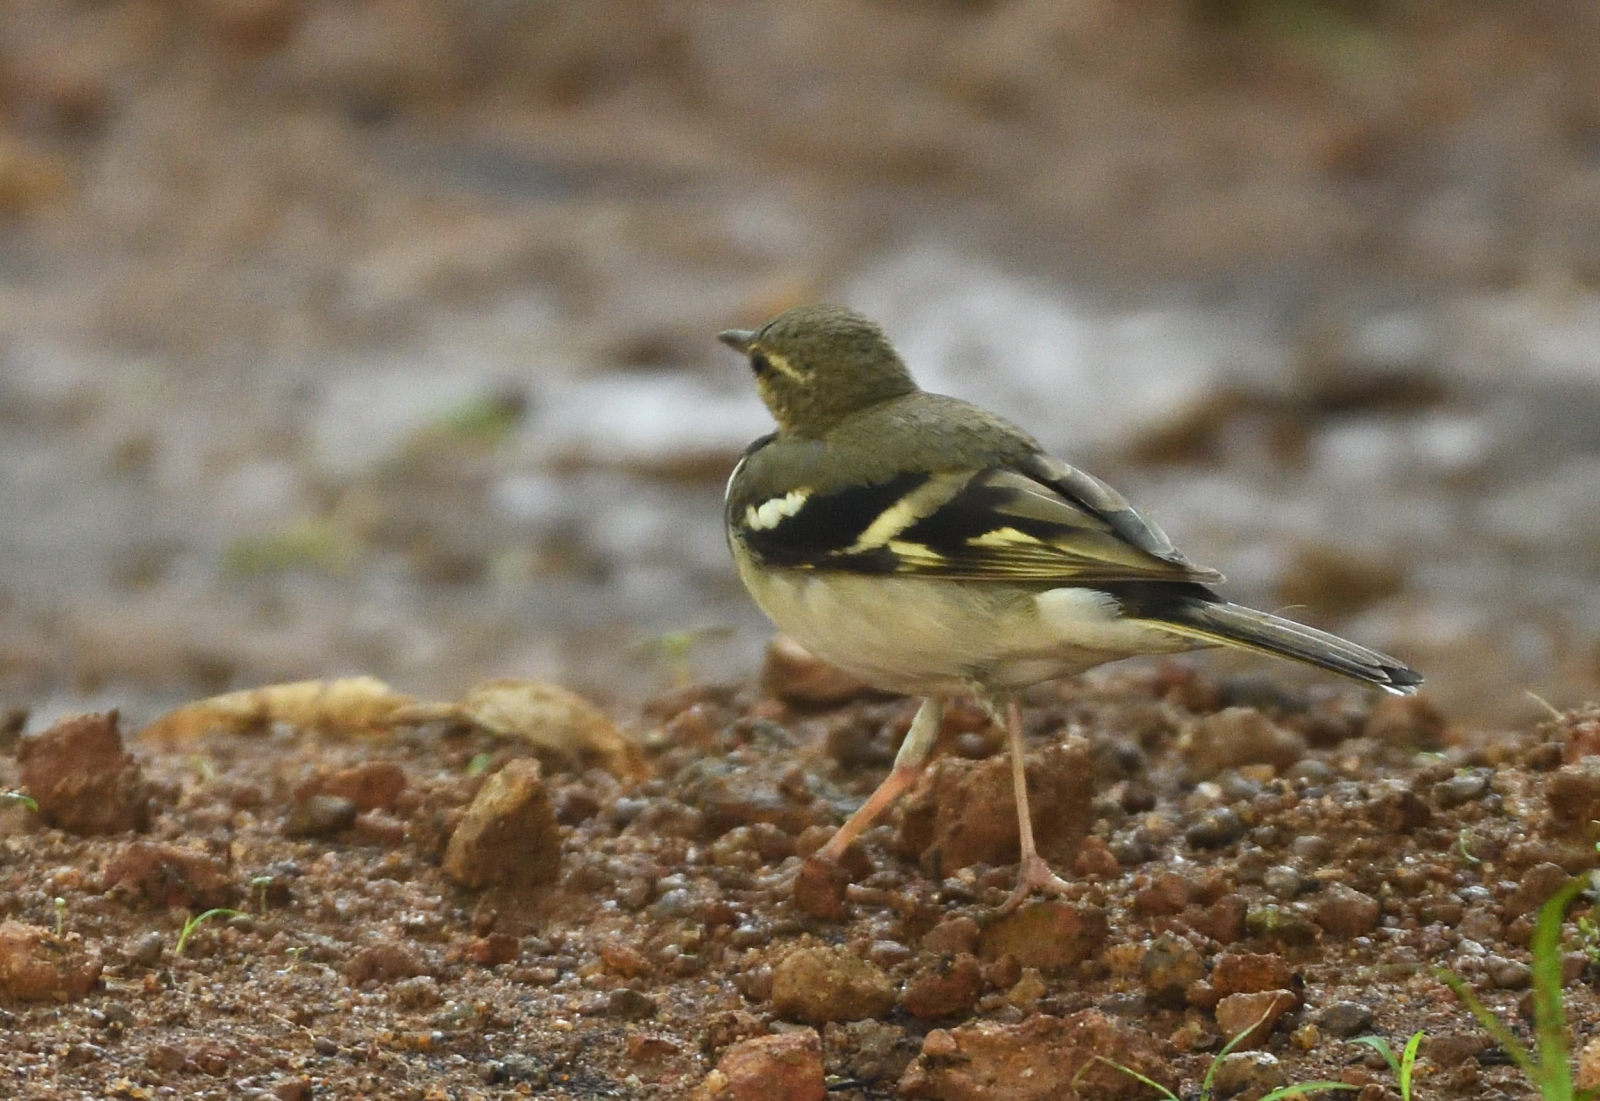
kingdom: Animalia
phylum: Chordata
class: Aves
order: Passeriformes
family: Motacillidae
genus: Dendronanthus
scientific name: Dendronanthus indicus
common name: Forest wagtail
